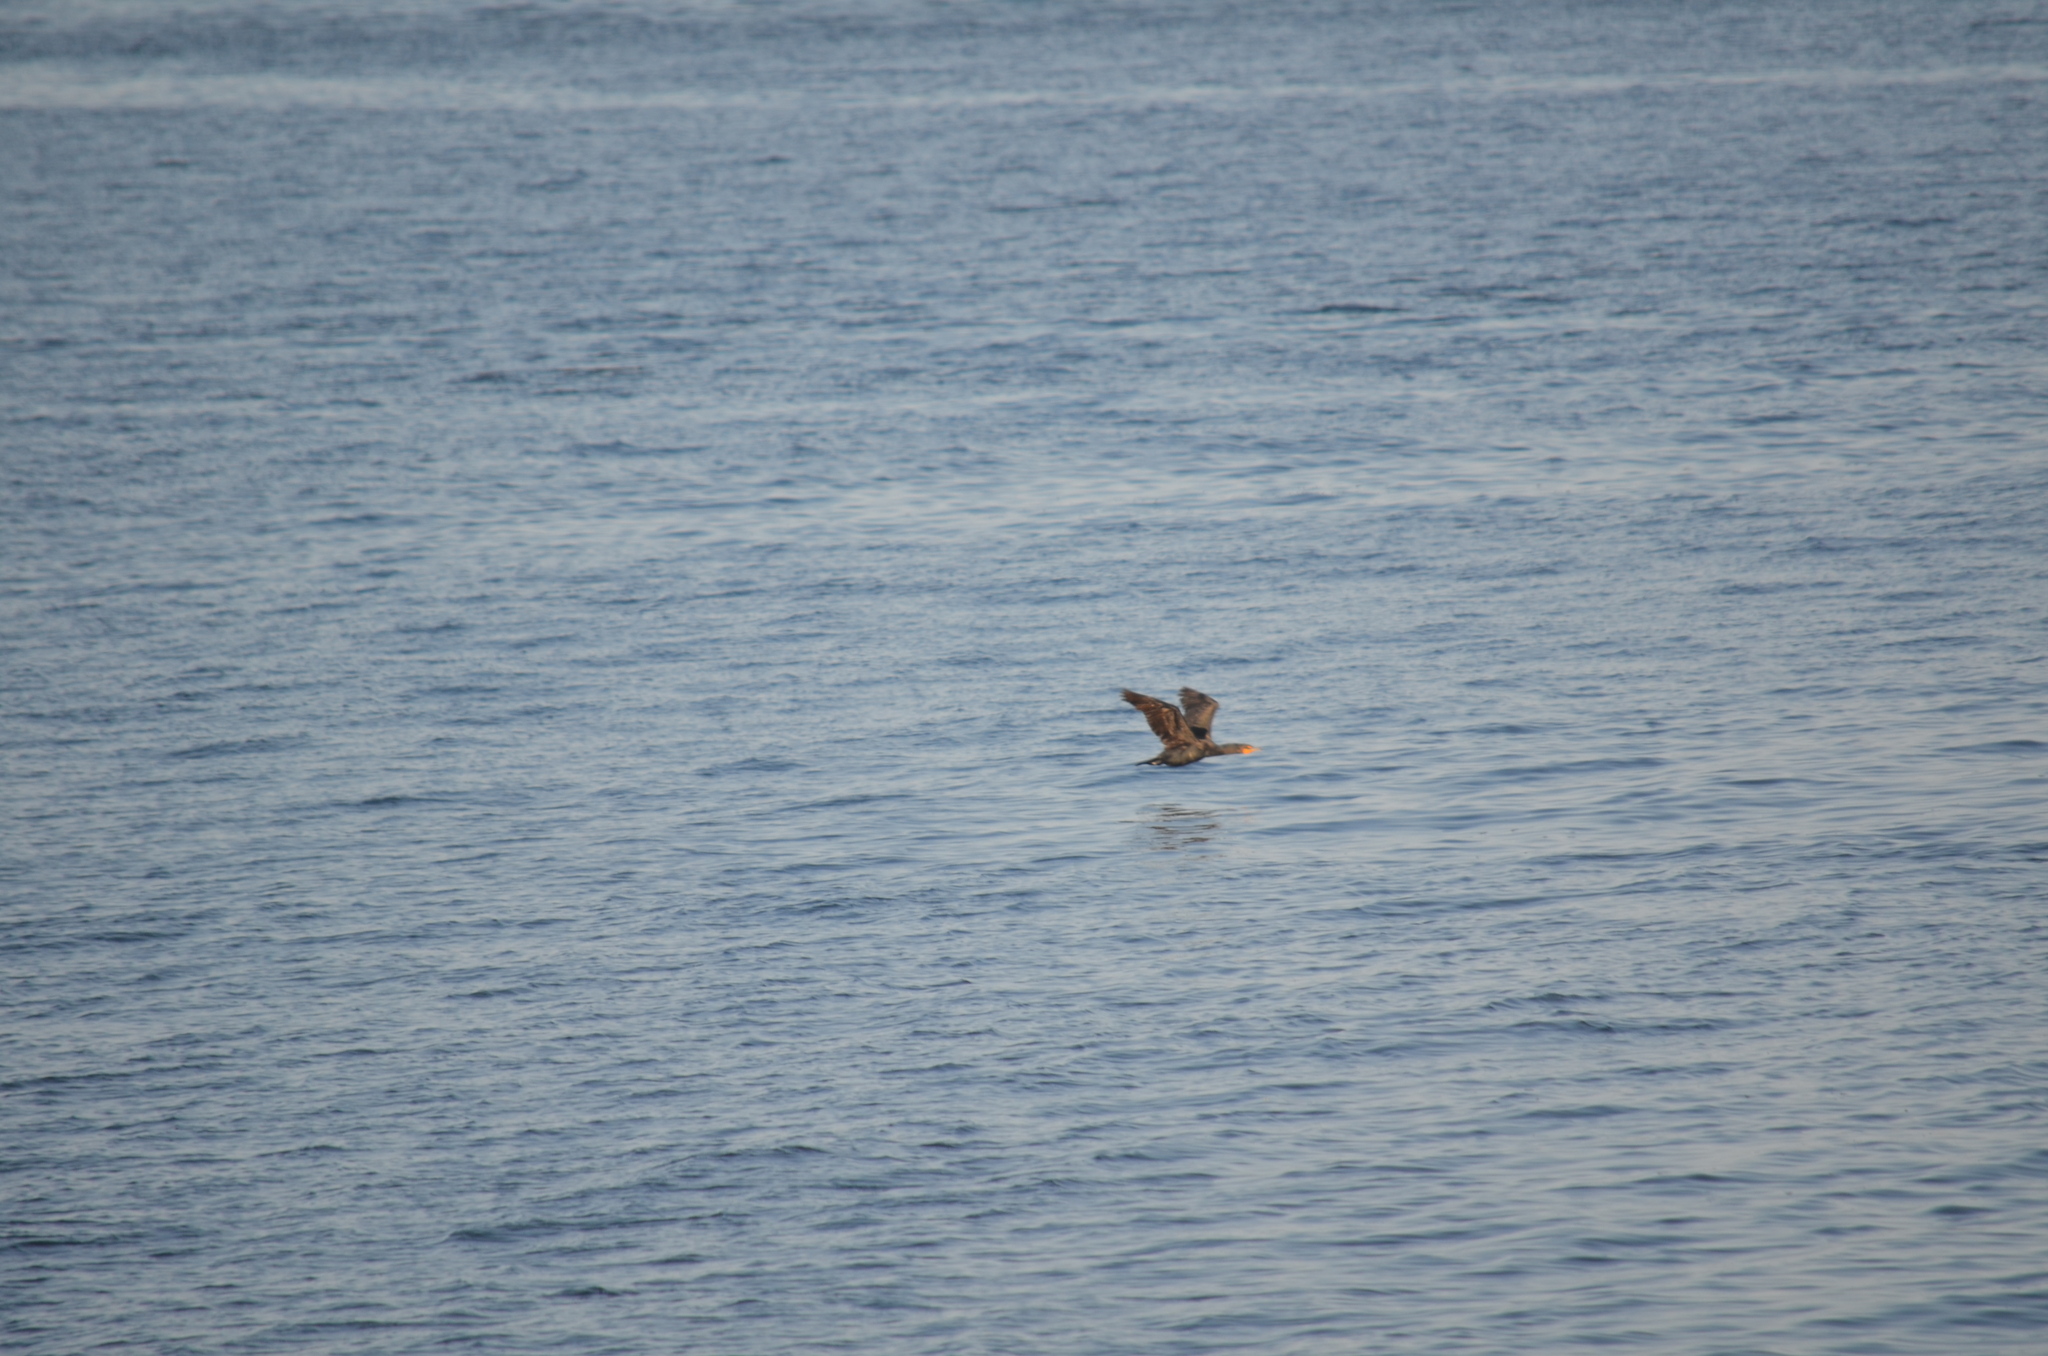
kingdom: Animalia
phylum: Chordata
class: Aves
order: Suliformes
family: Phalacrocoracidae
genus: Phalacrocorax
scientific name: Phalacrocorax auritus
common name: Double-crested cormorant
